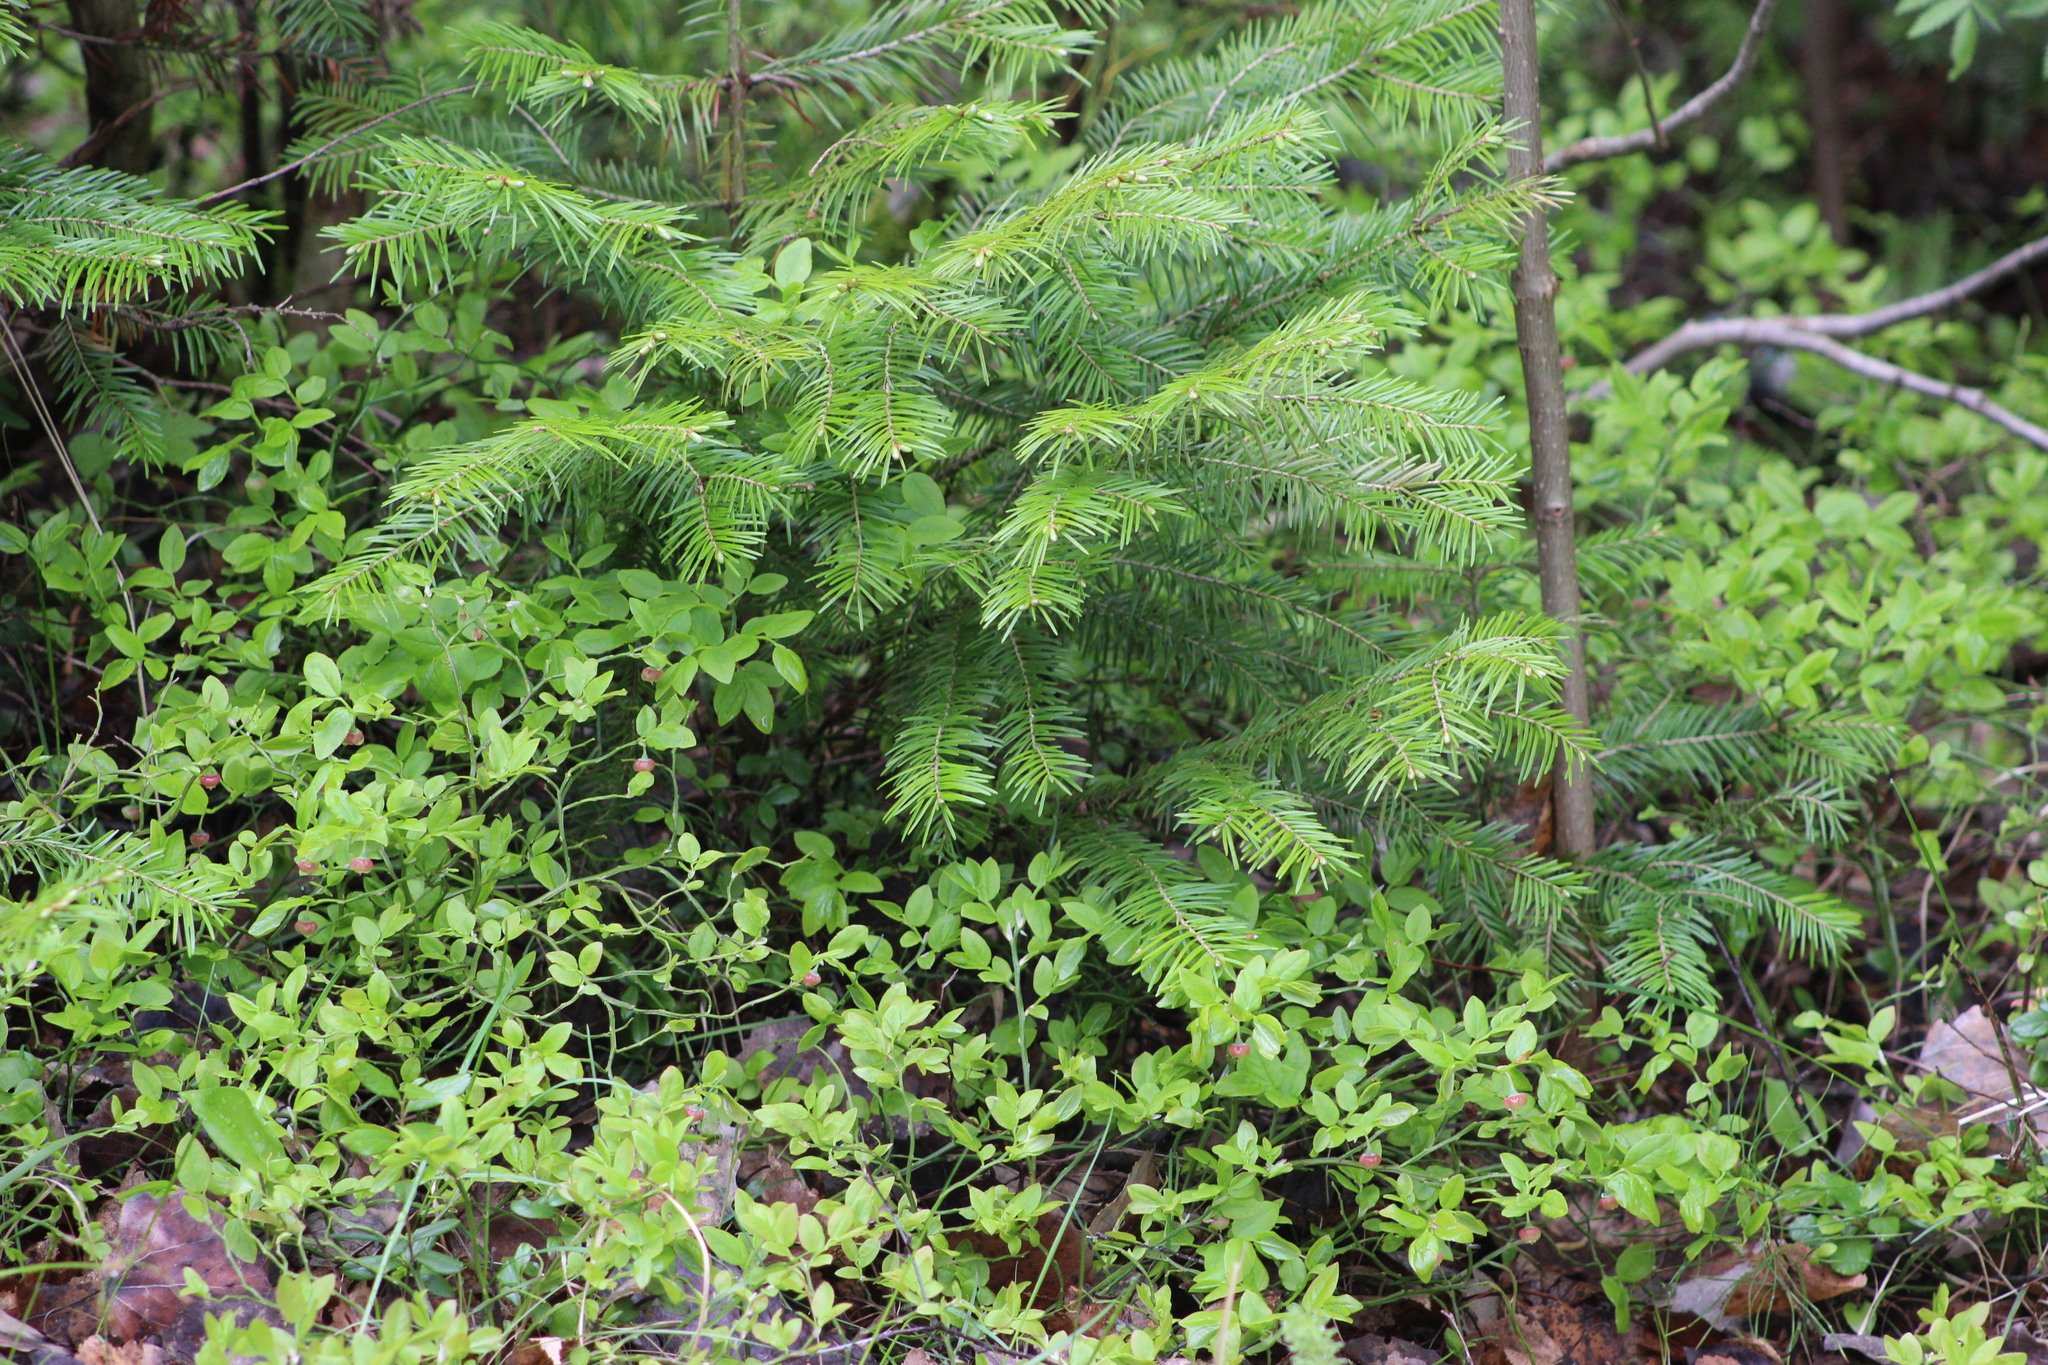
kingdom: Plantae
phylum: Tracheophyta
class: Pinopsida
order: Pinales
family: Pinaceae
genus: Abies
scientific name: Abies sibirica
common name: Siberian fir
